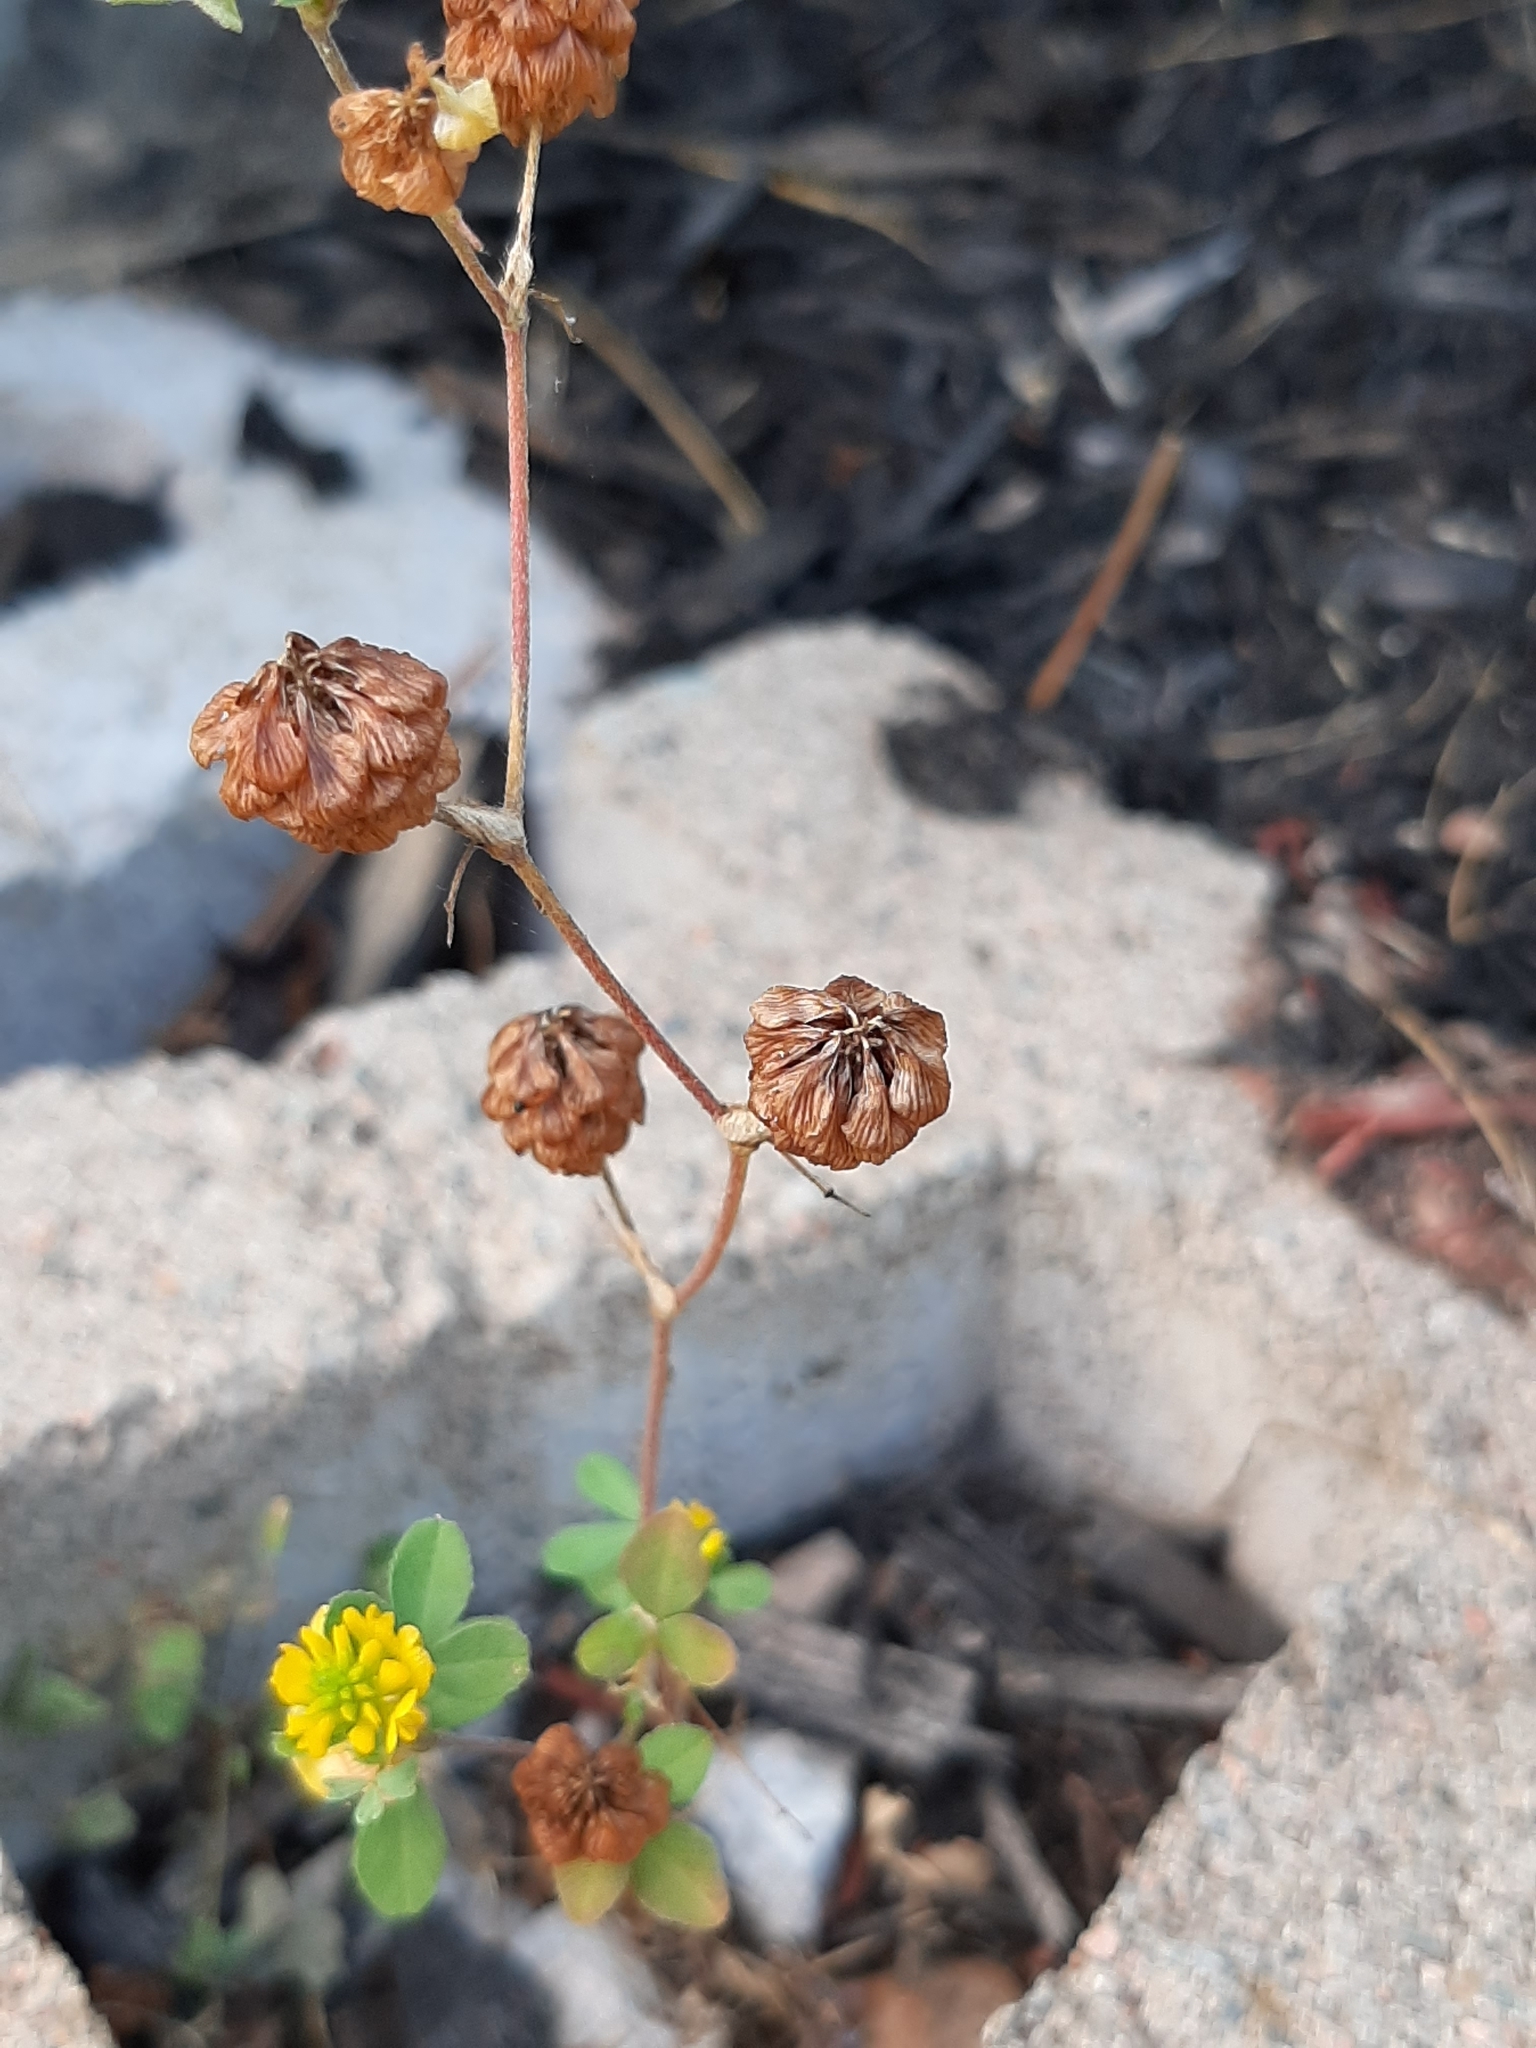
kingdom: Plantae
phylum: Tracheophyta
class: Magnoliopsida
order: Fabales
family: Fabaceae
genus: Trifolium
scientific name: Trifolium campestre
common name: Field clover
